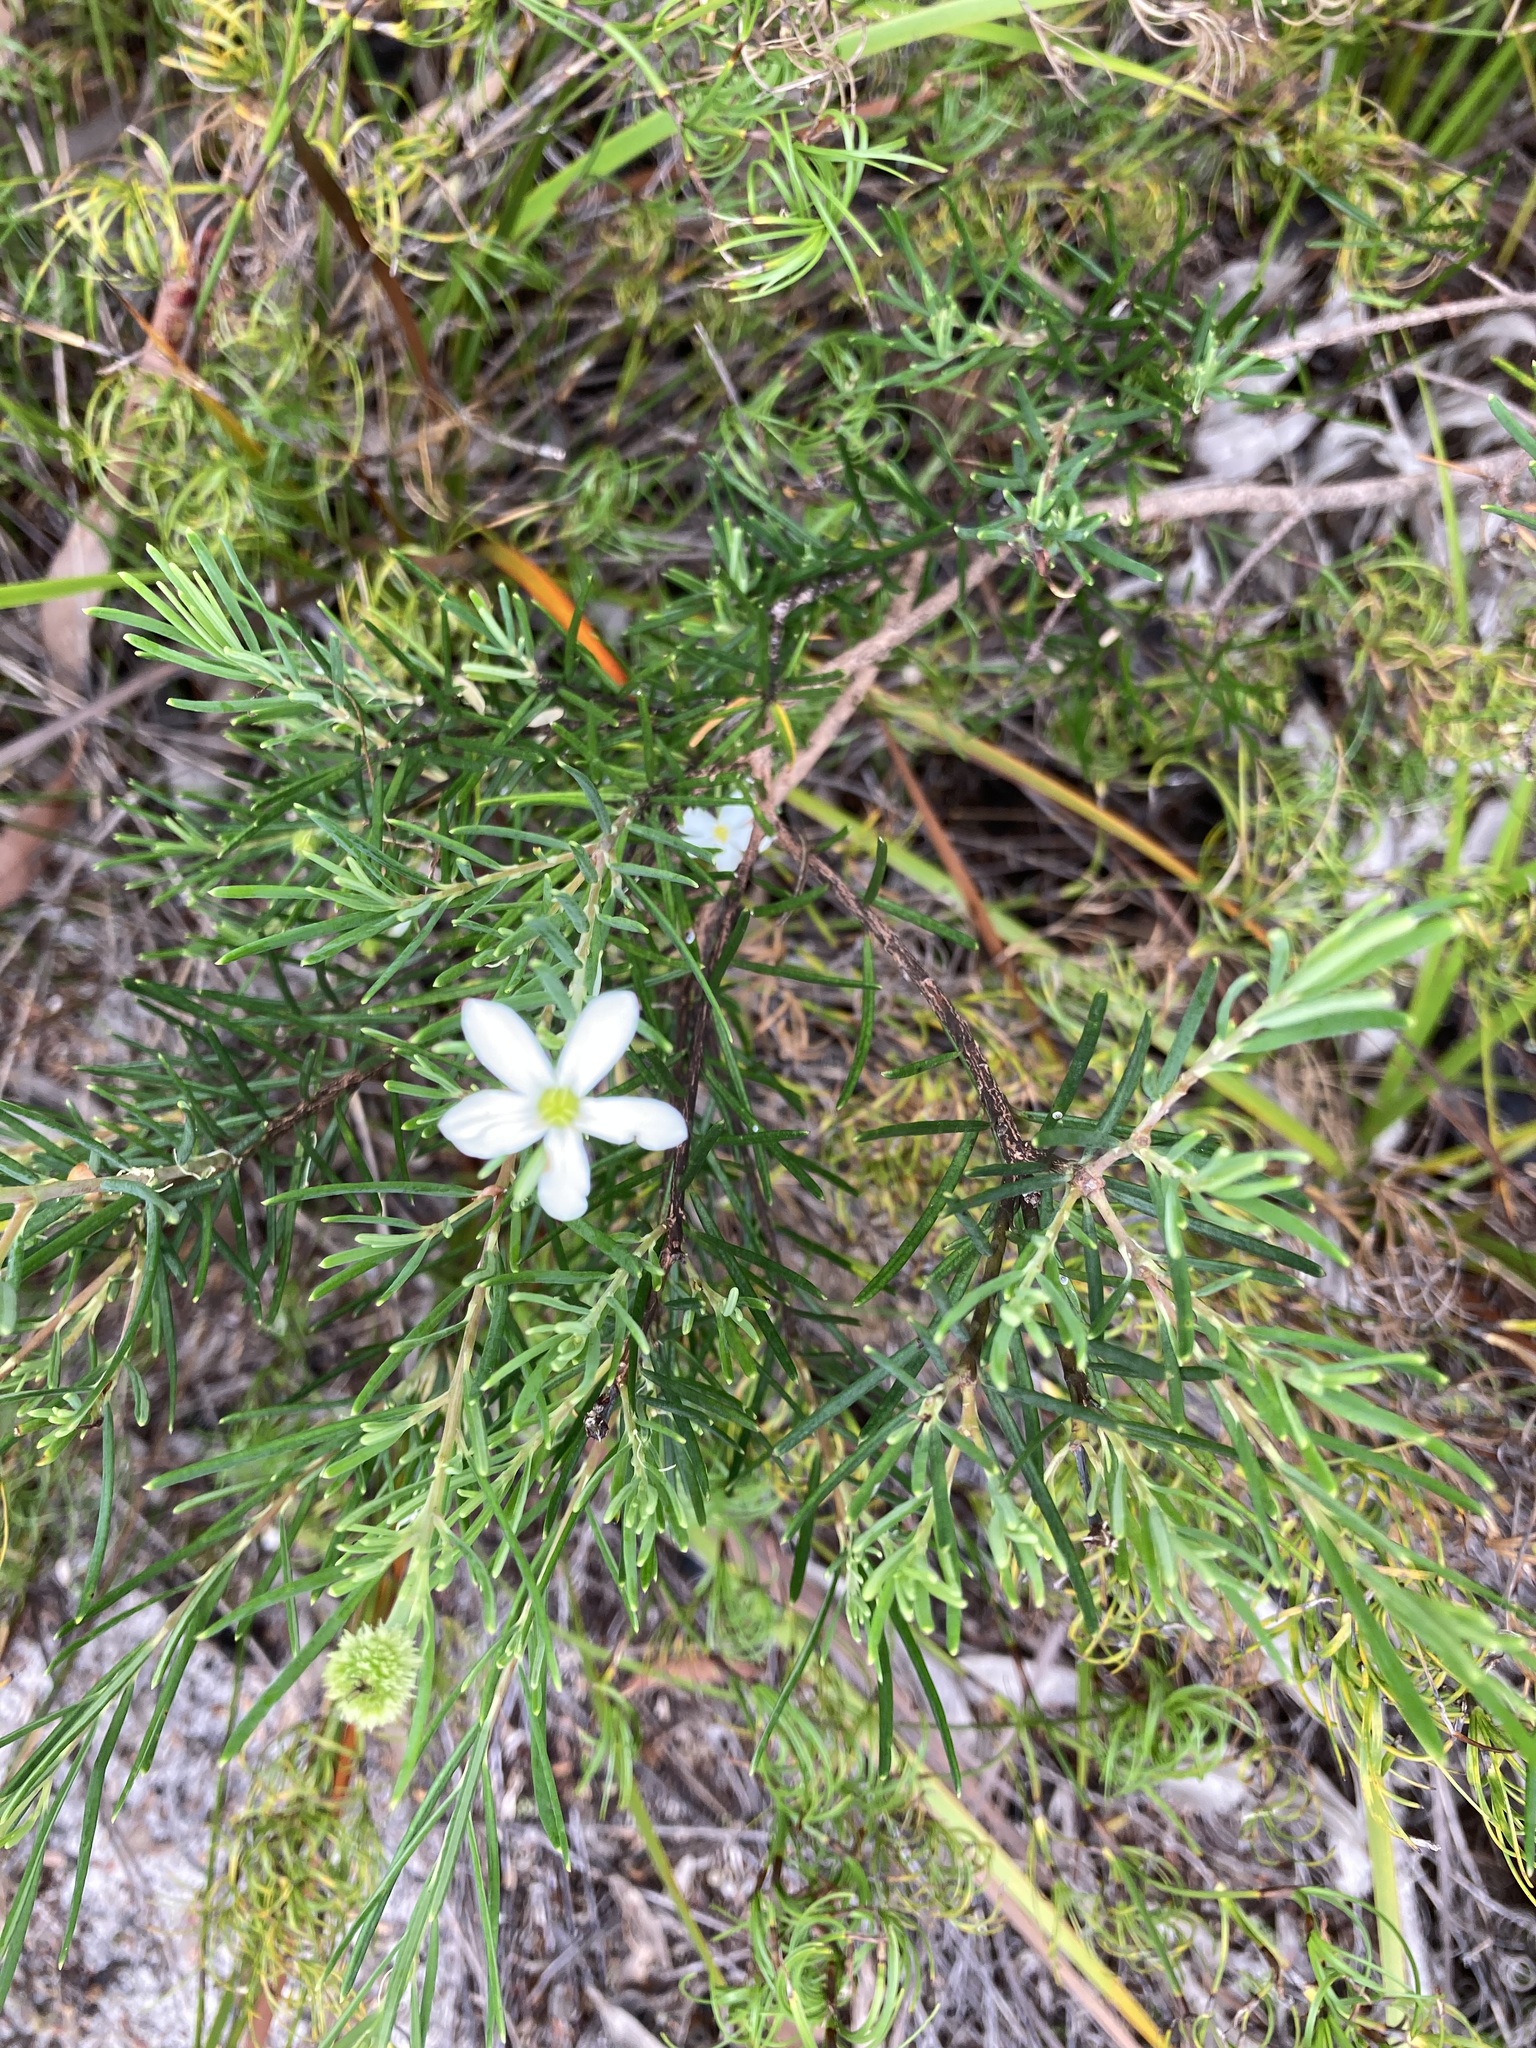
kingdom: Plantae
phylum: Tracheophyta
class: Magnoliopsida
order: Malpighiales
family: Euphorbiaceae
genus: Ricinocarpos
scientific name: Ricinocarpos pinifolius
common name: Weddingbush
